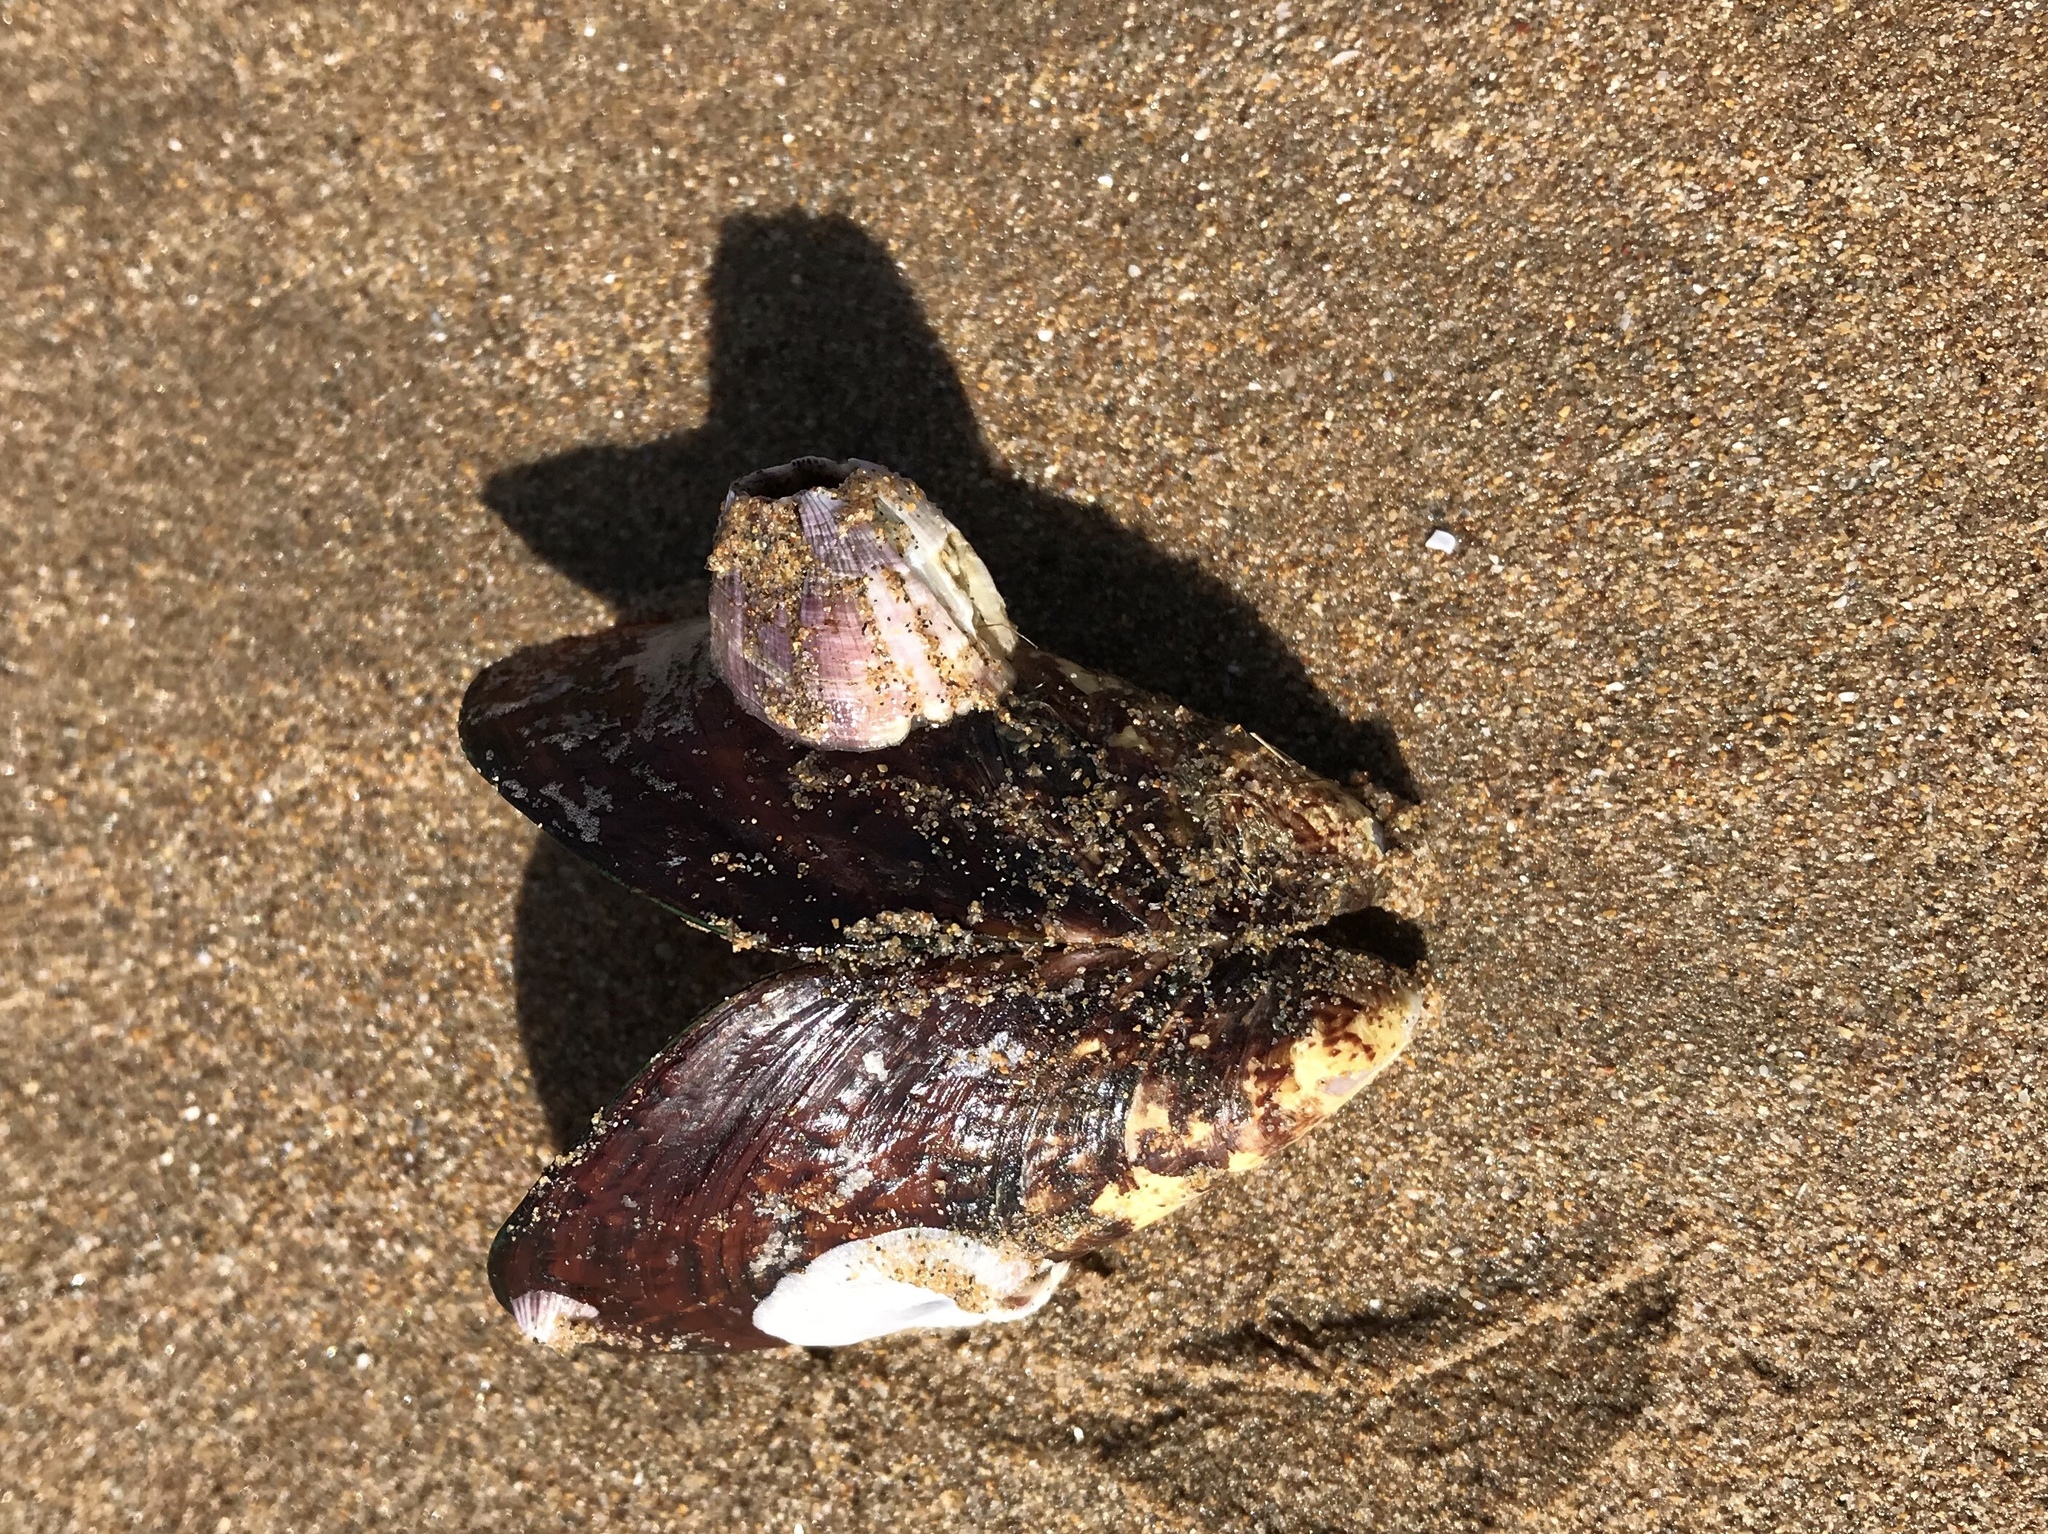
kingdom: Animalia
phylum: Arthropoda
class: Maxillopoda
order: Sessilia
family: Balanidae
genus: Perforatus
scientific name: Perforatus perforatus
